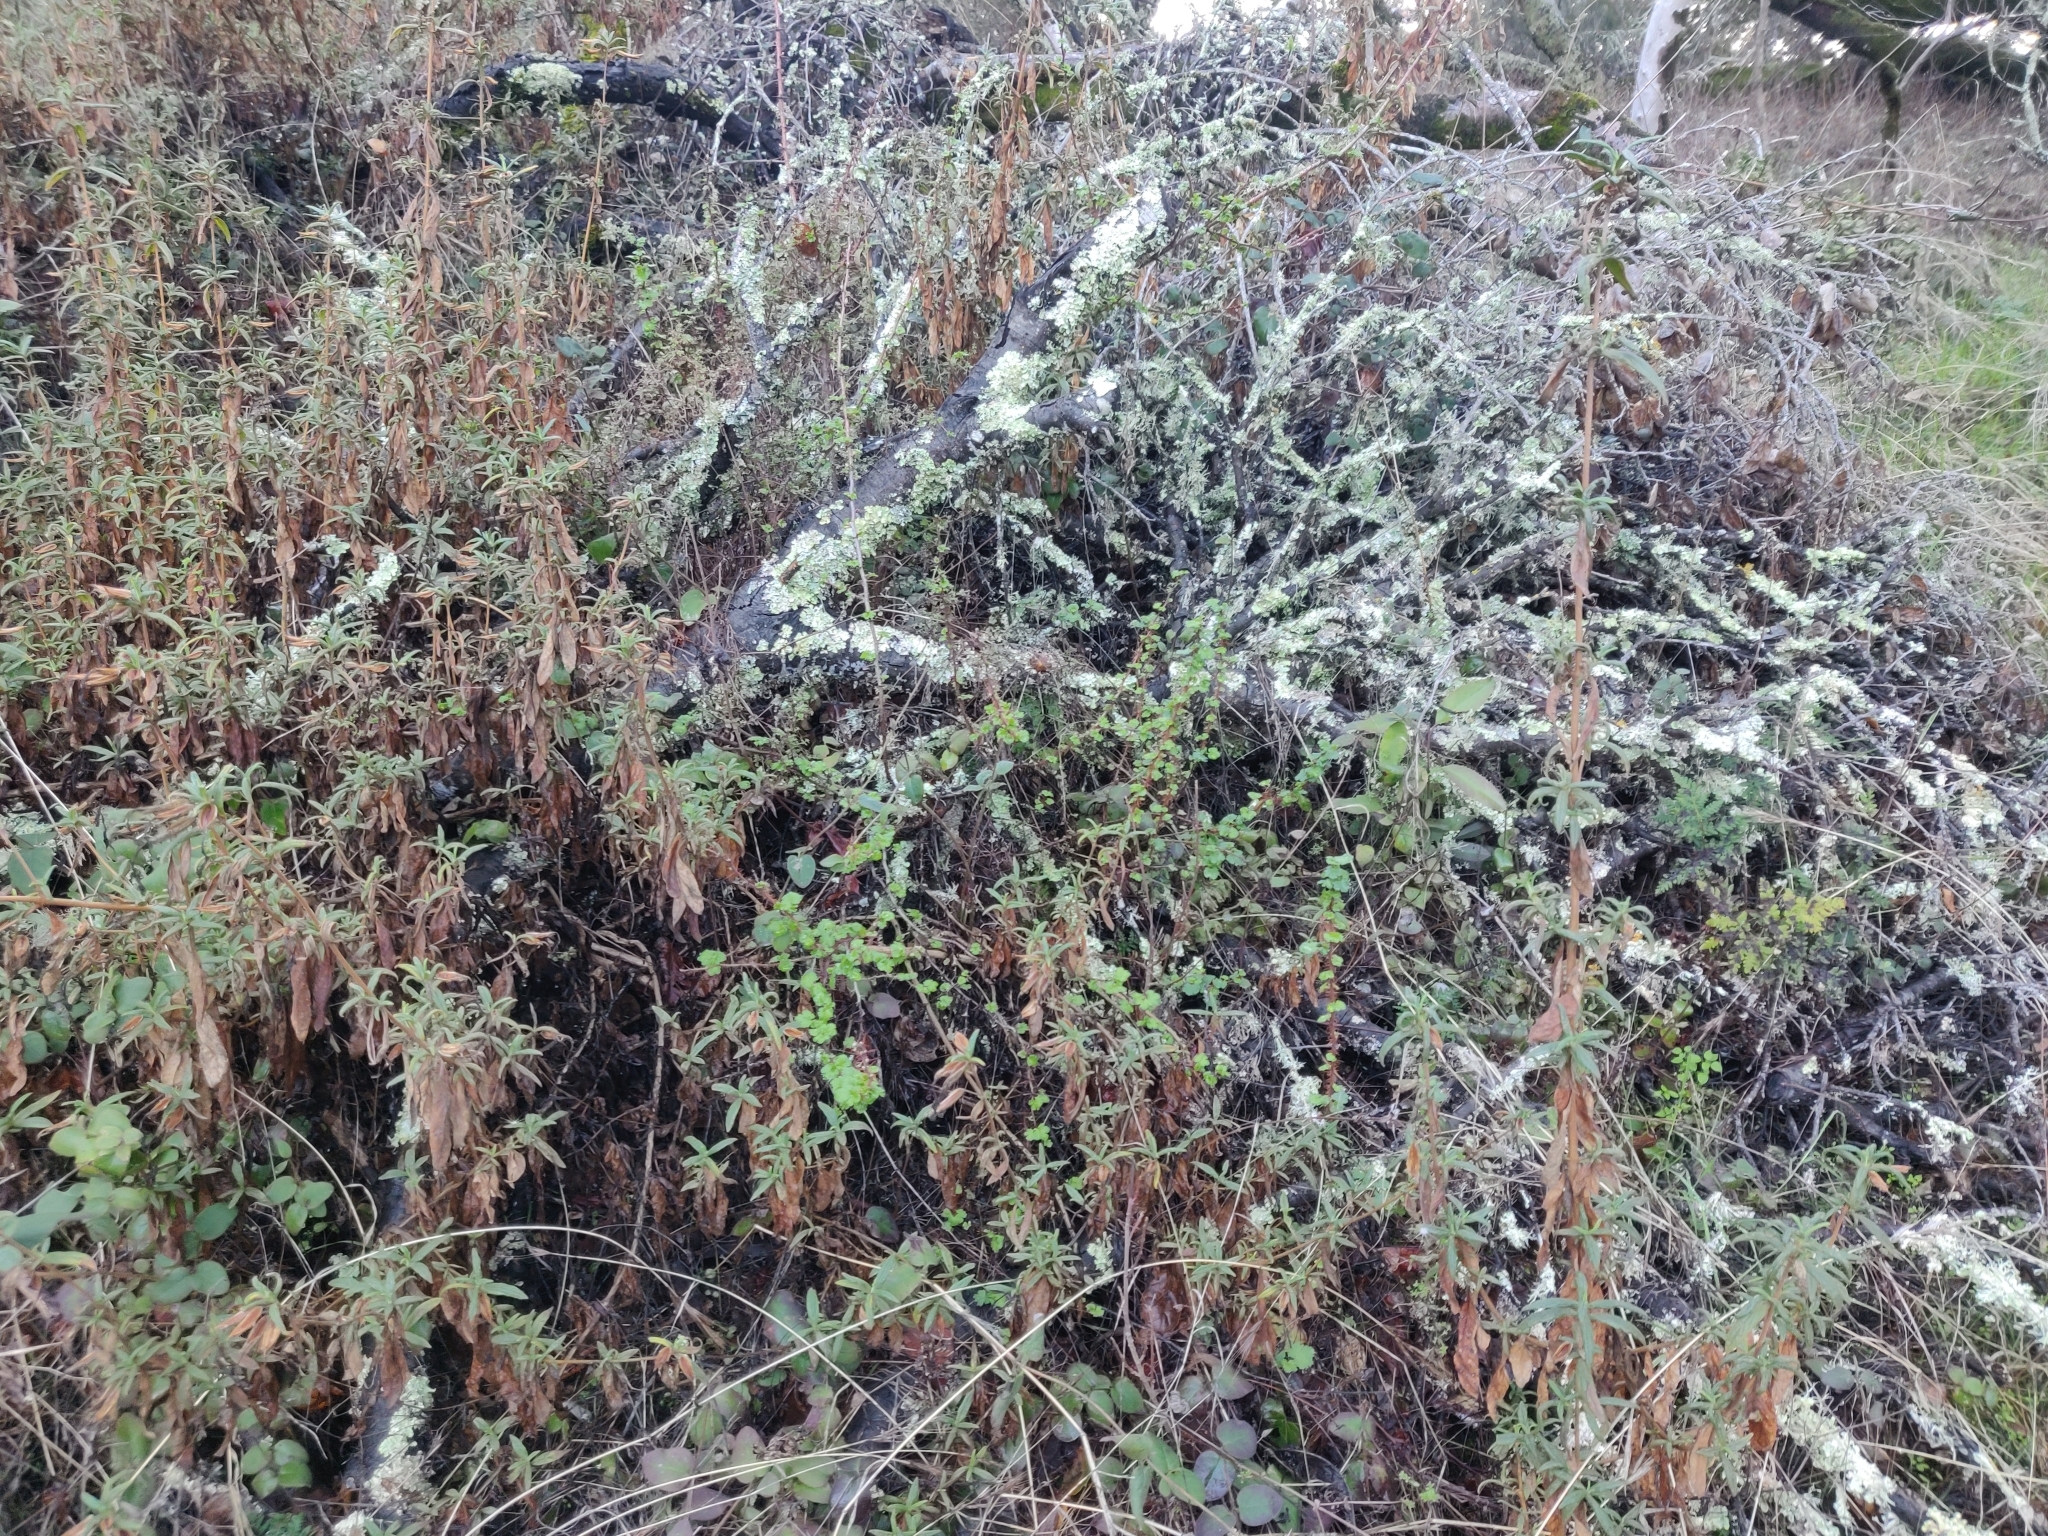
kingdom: Plantae
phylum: Tracheophyta
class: Magnoliopsida
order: Saxifragales
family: Grossulariaceae
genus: Ribes
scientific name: Ribes californicum
